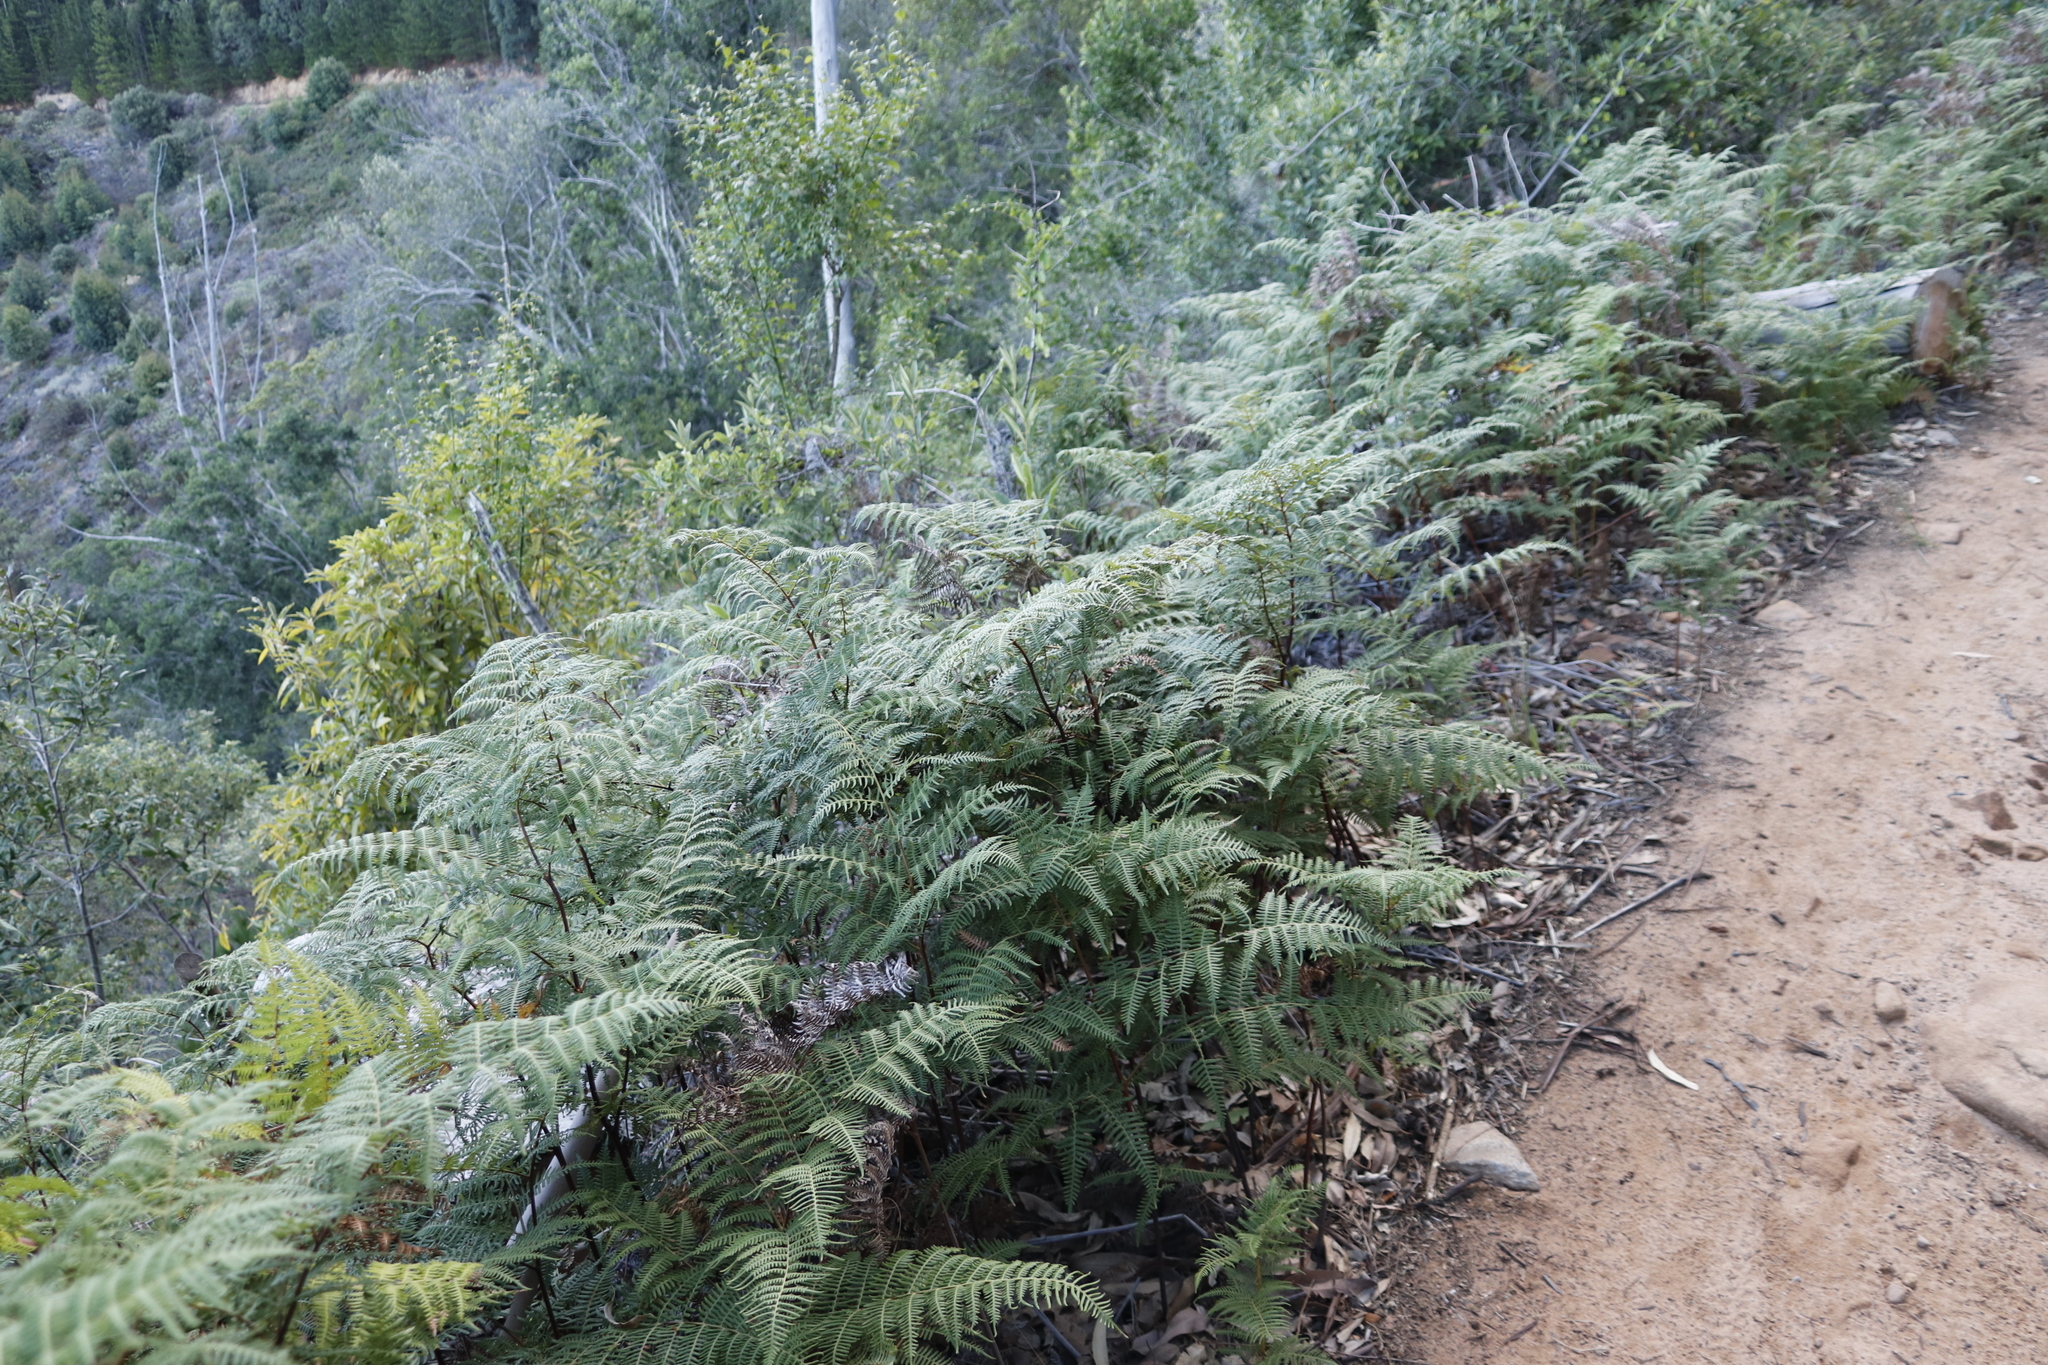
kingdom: Plantae
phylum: Tracheophyta
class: Polypodiopsida
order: Polypodiales
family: Dennstaedtiaceae
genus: Pteridium
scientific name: Pteridium aquilinum
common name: Bracken
